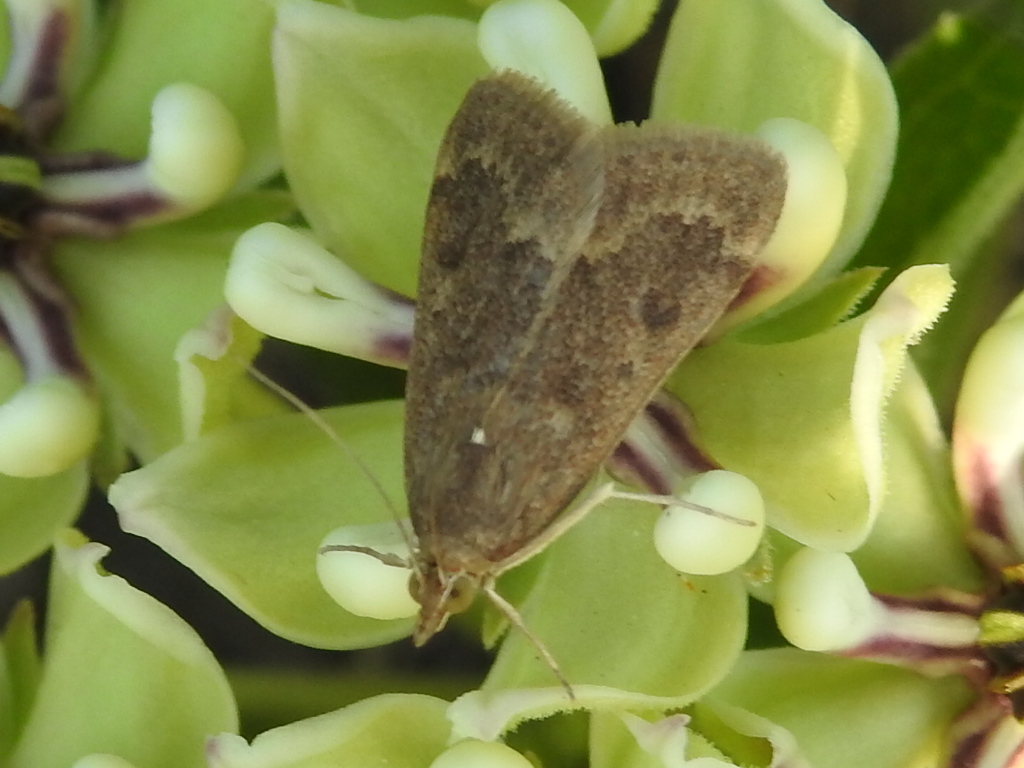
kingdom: Animalia
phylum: Arthropoda
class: Insecta
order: Lepidoptera
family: Crambidae
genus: Achyra
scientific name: Achyra rantalis
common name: Garden webworm
